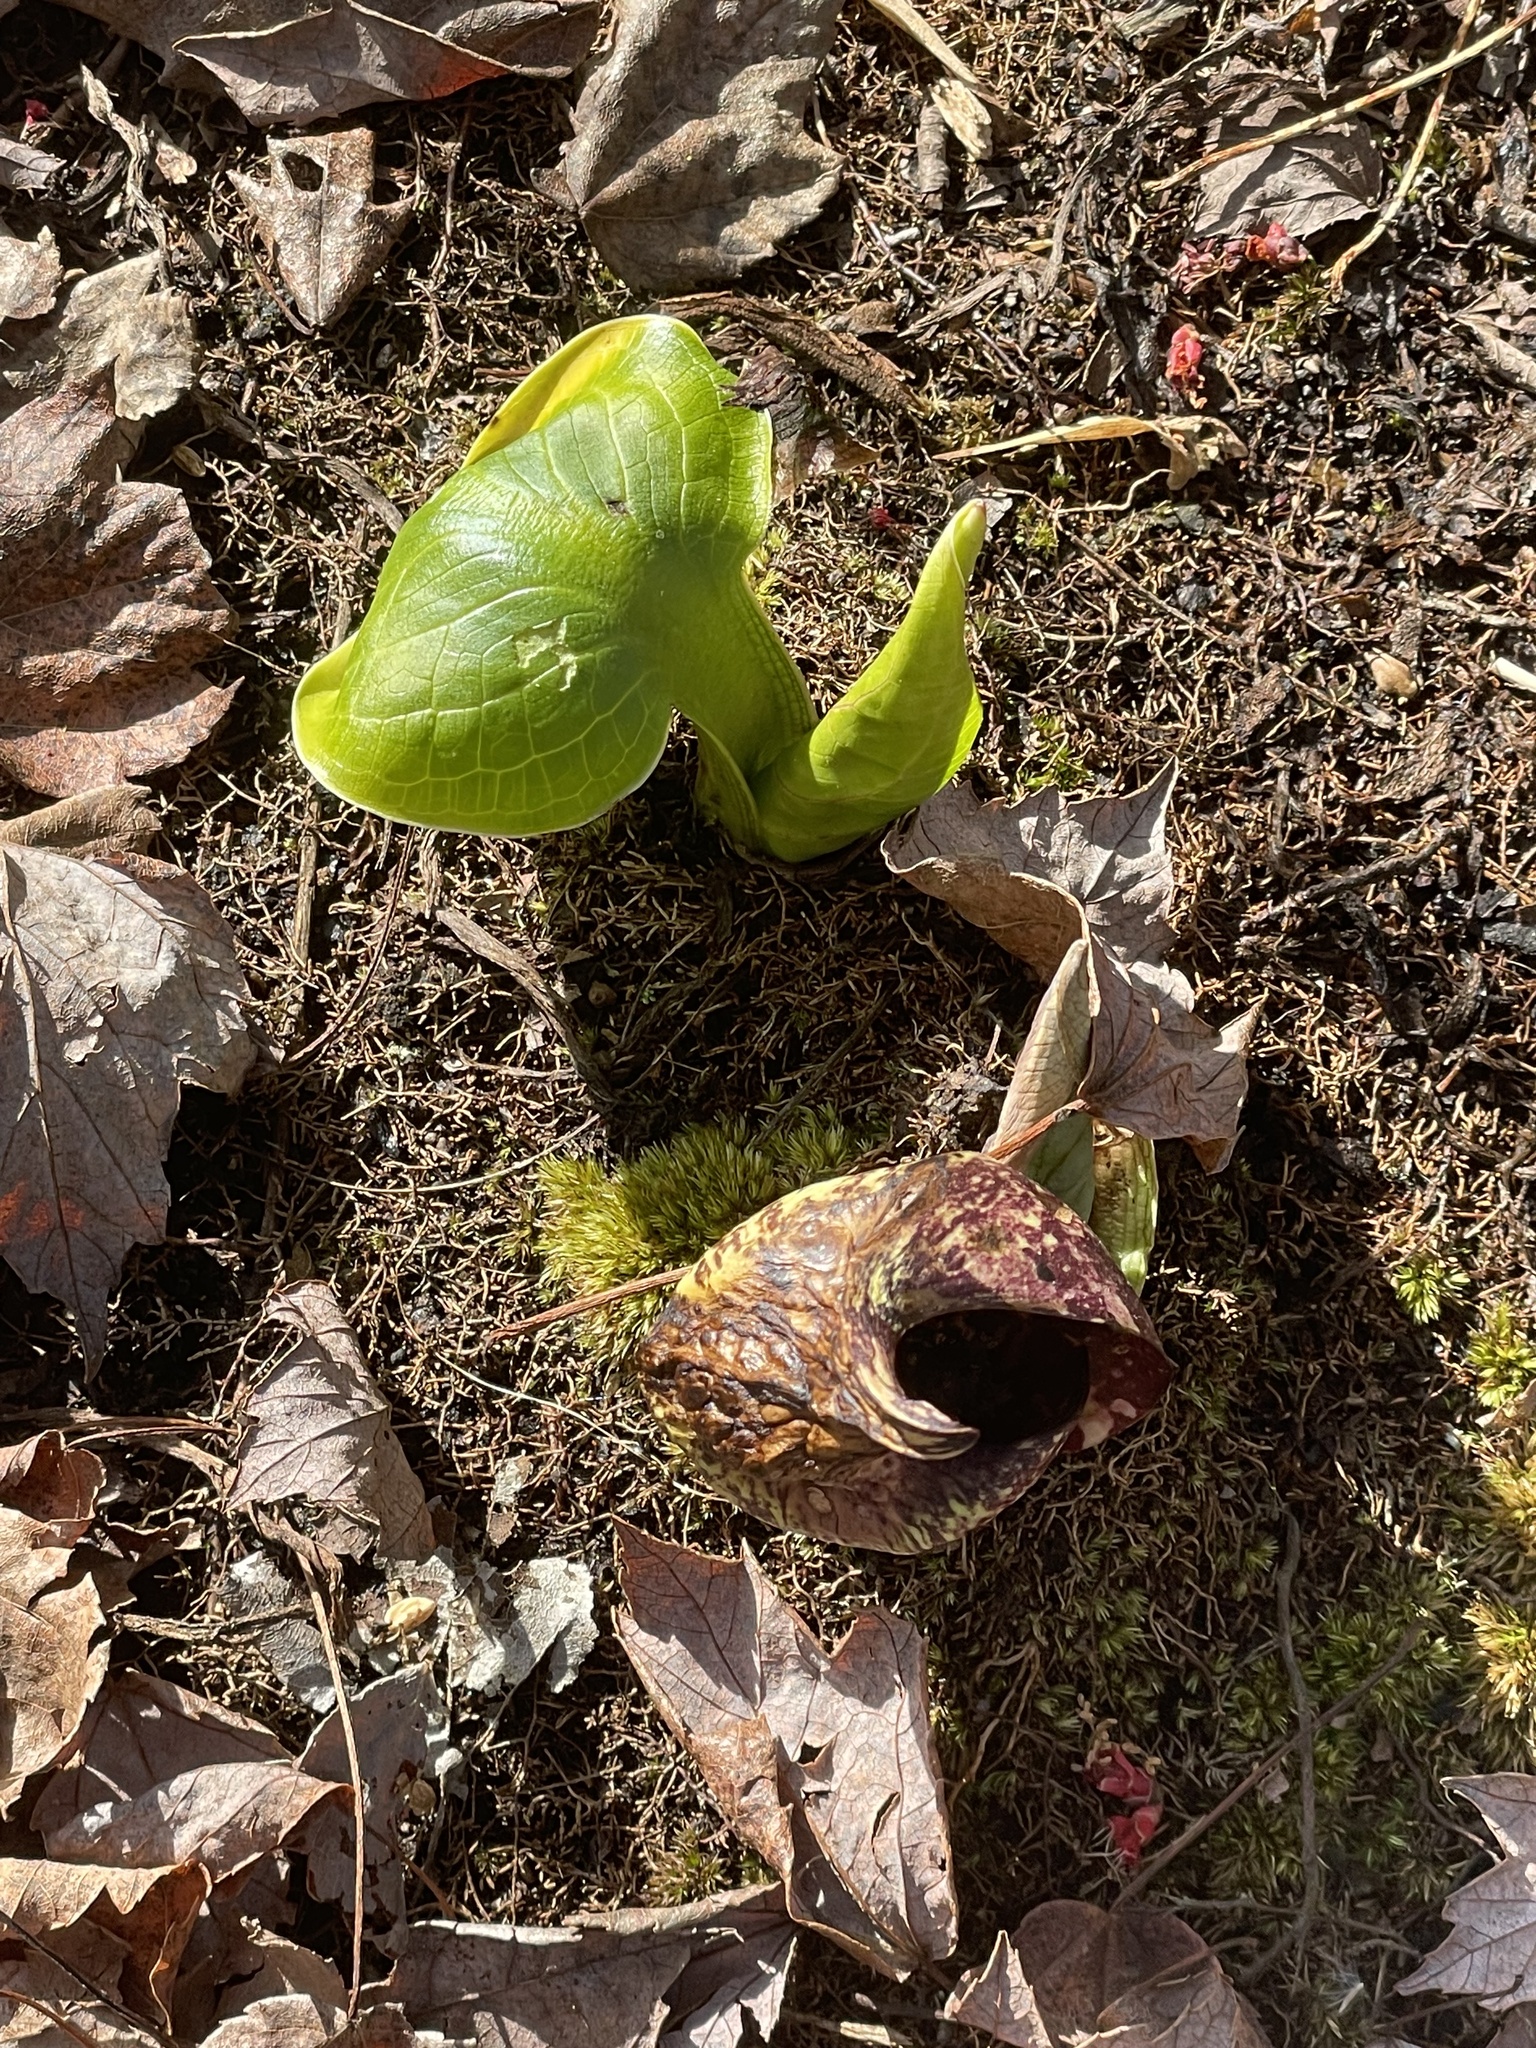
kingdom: Plantae
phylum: Tracheophyta
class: Liliopsida
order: Alismatales
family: Araceae
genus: Symplocarpus
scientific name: Symplocarpus foetidus
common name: Eastern skunk cabbage
